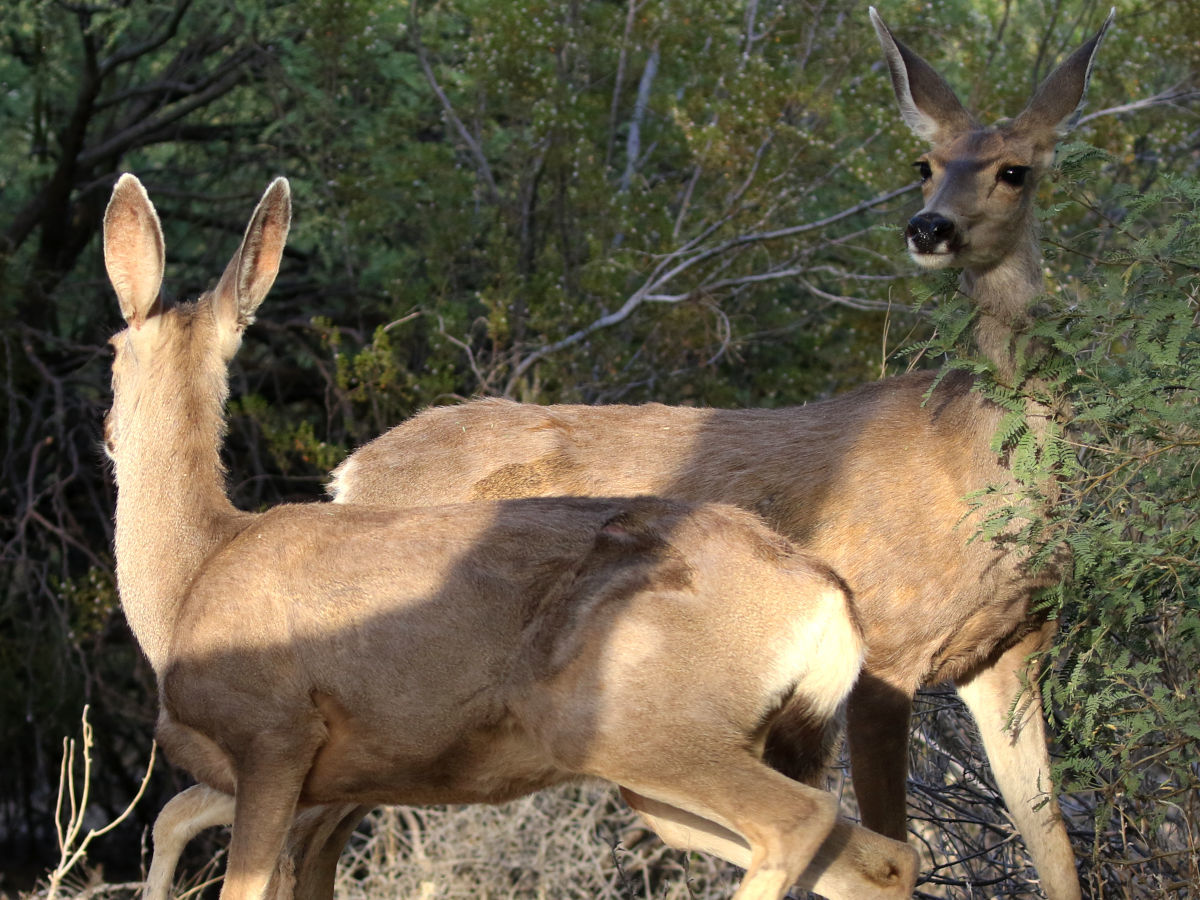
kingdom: Animalia
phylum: Chordata
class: Mammalia
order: Artiodactyla
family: Cervidae
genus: Odocoileus
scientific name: Odocoileus hemionus
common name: Mule deer
